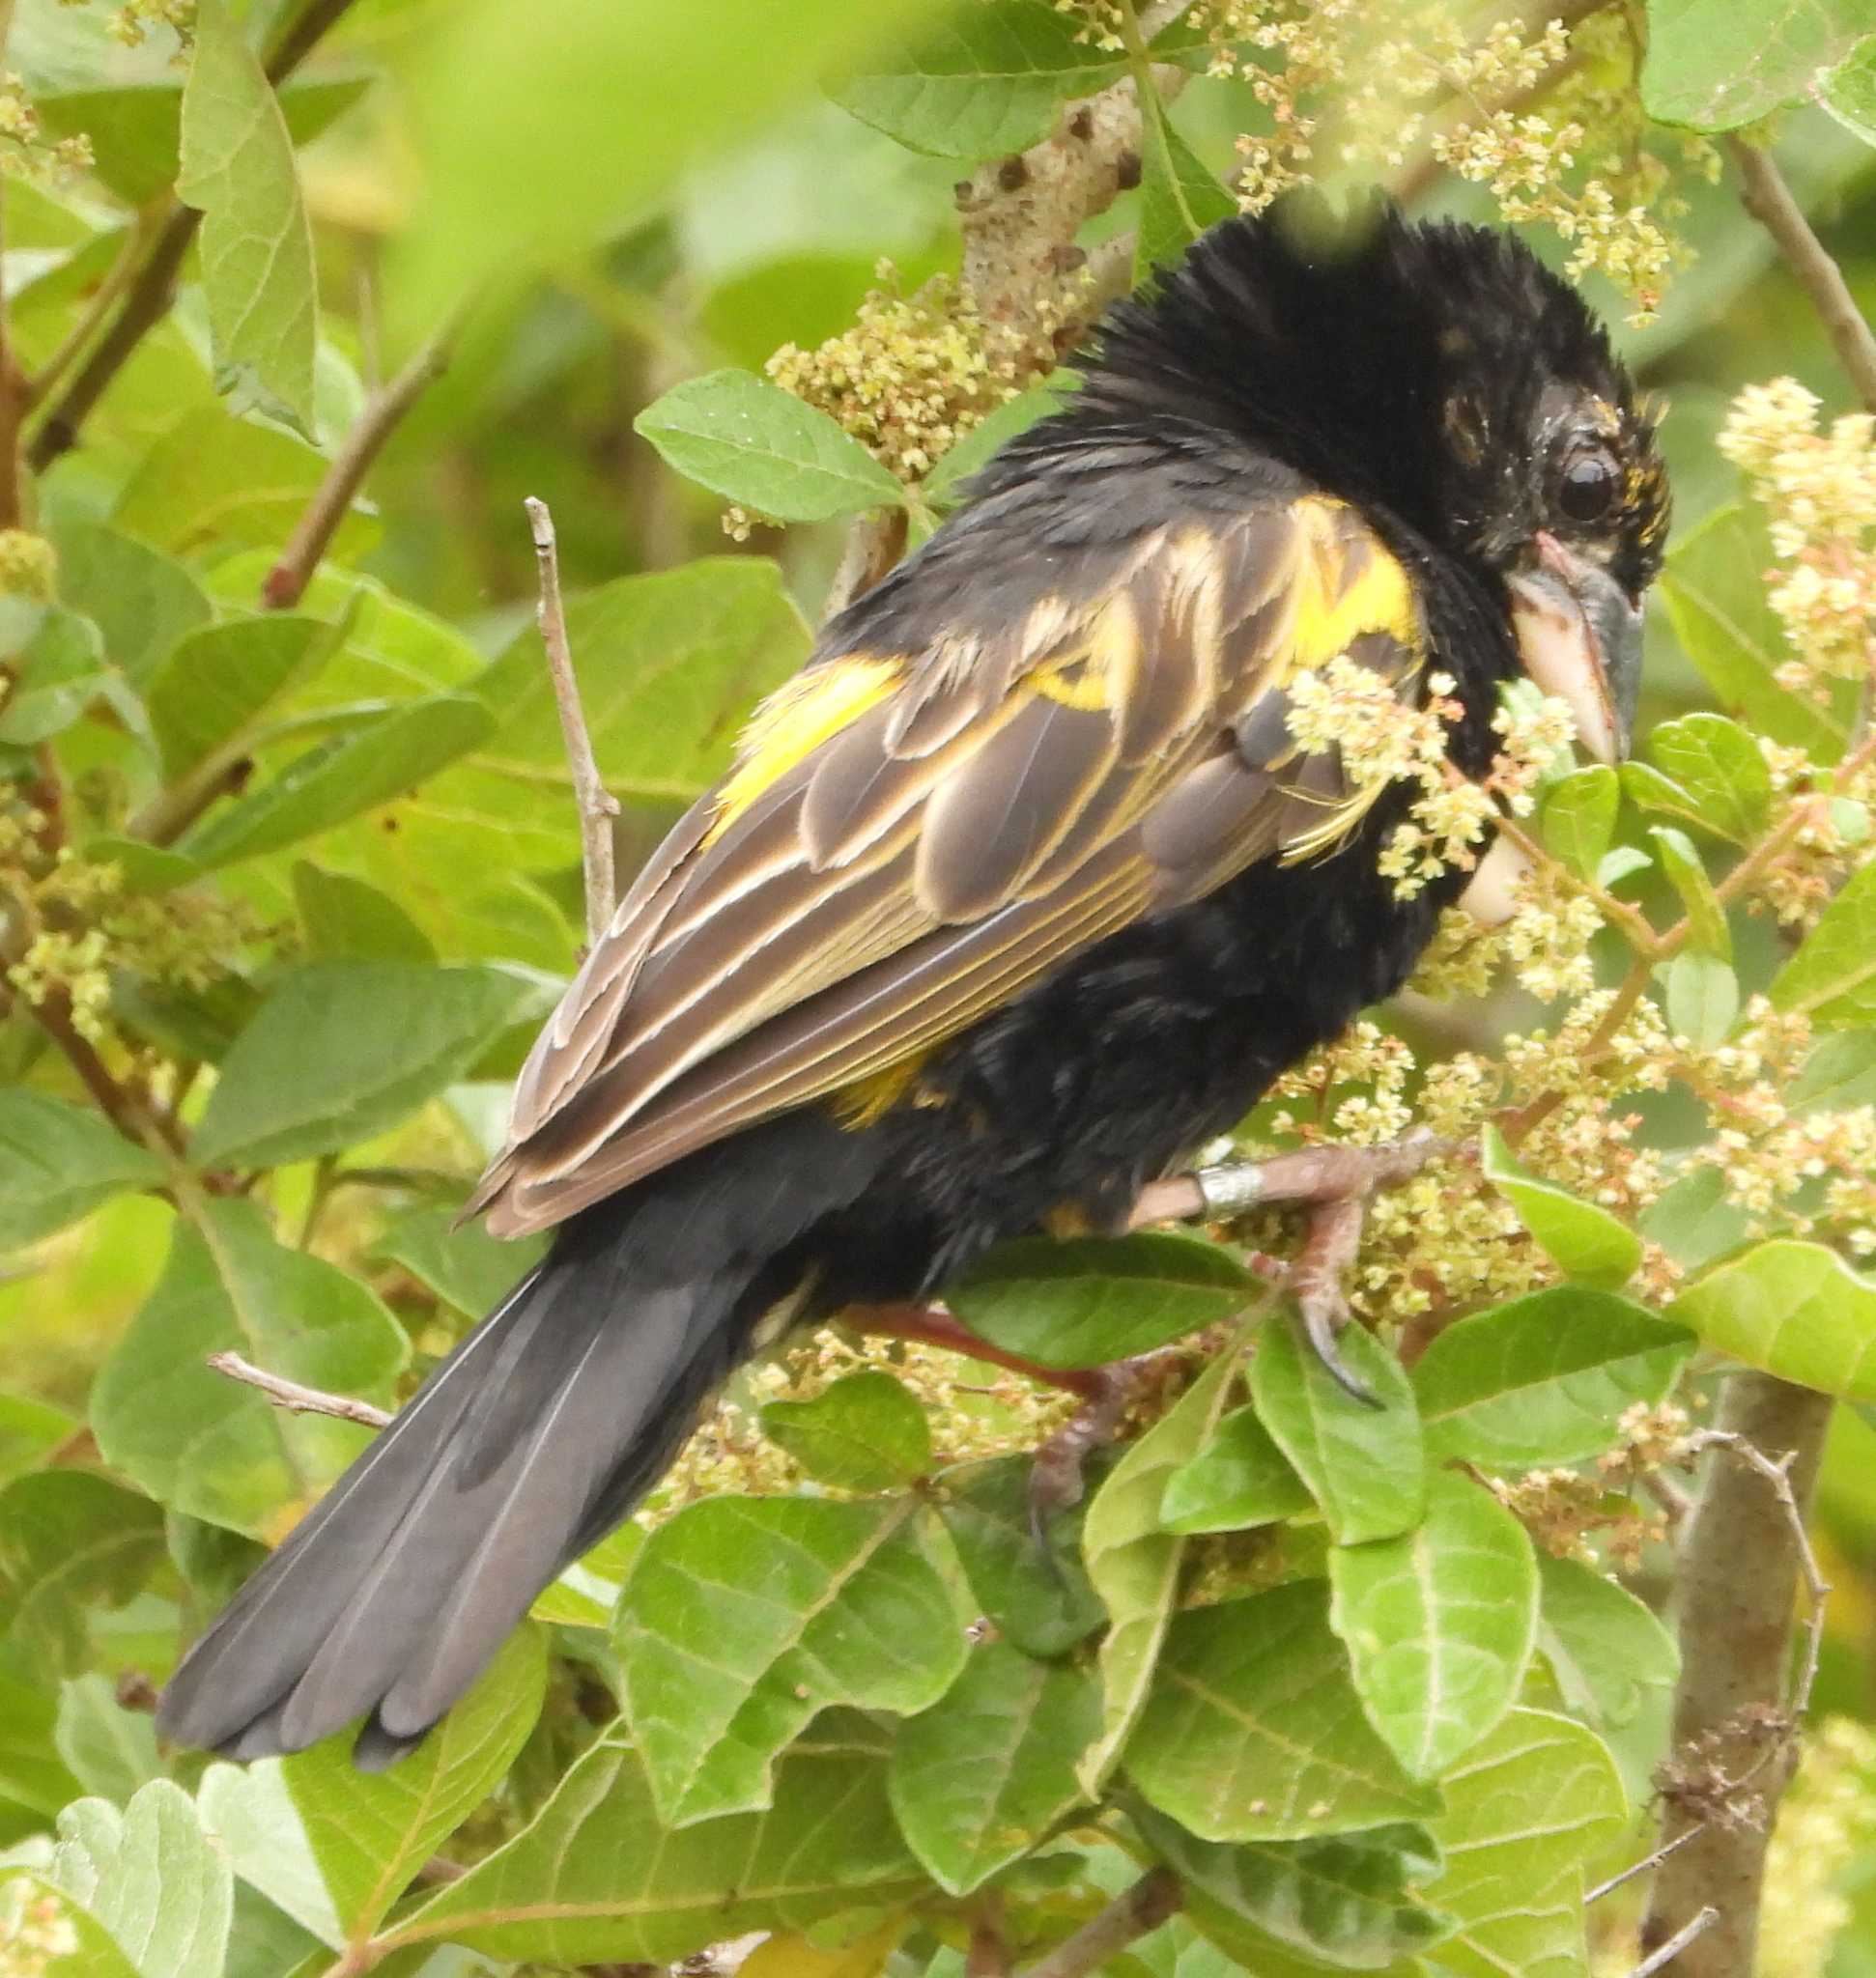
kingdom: Animalia
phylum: Chordata
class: Aves
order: Passeriformes
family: Ploceidae
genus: Euplectes
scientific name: Euplectes capensis
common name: Yellow bishop
